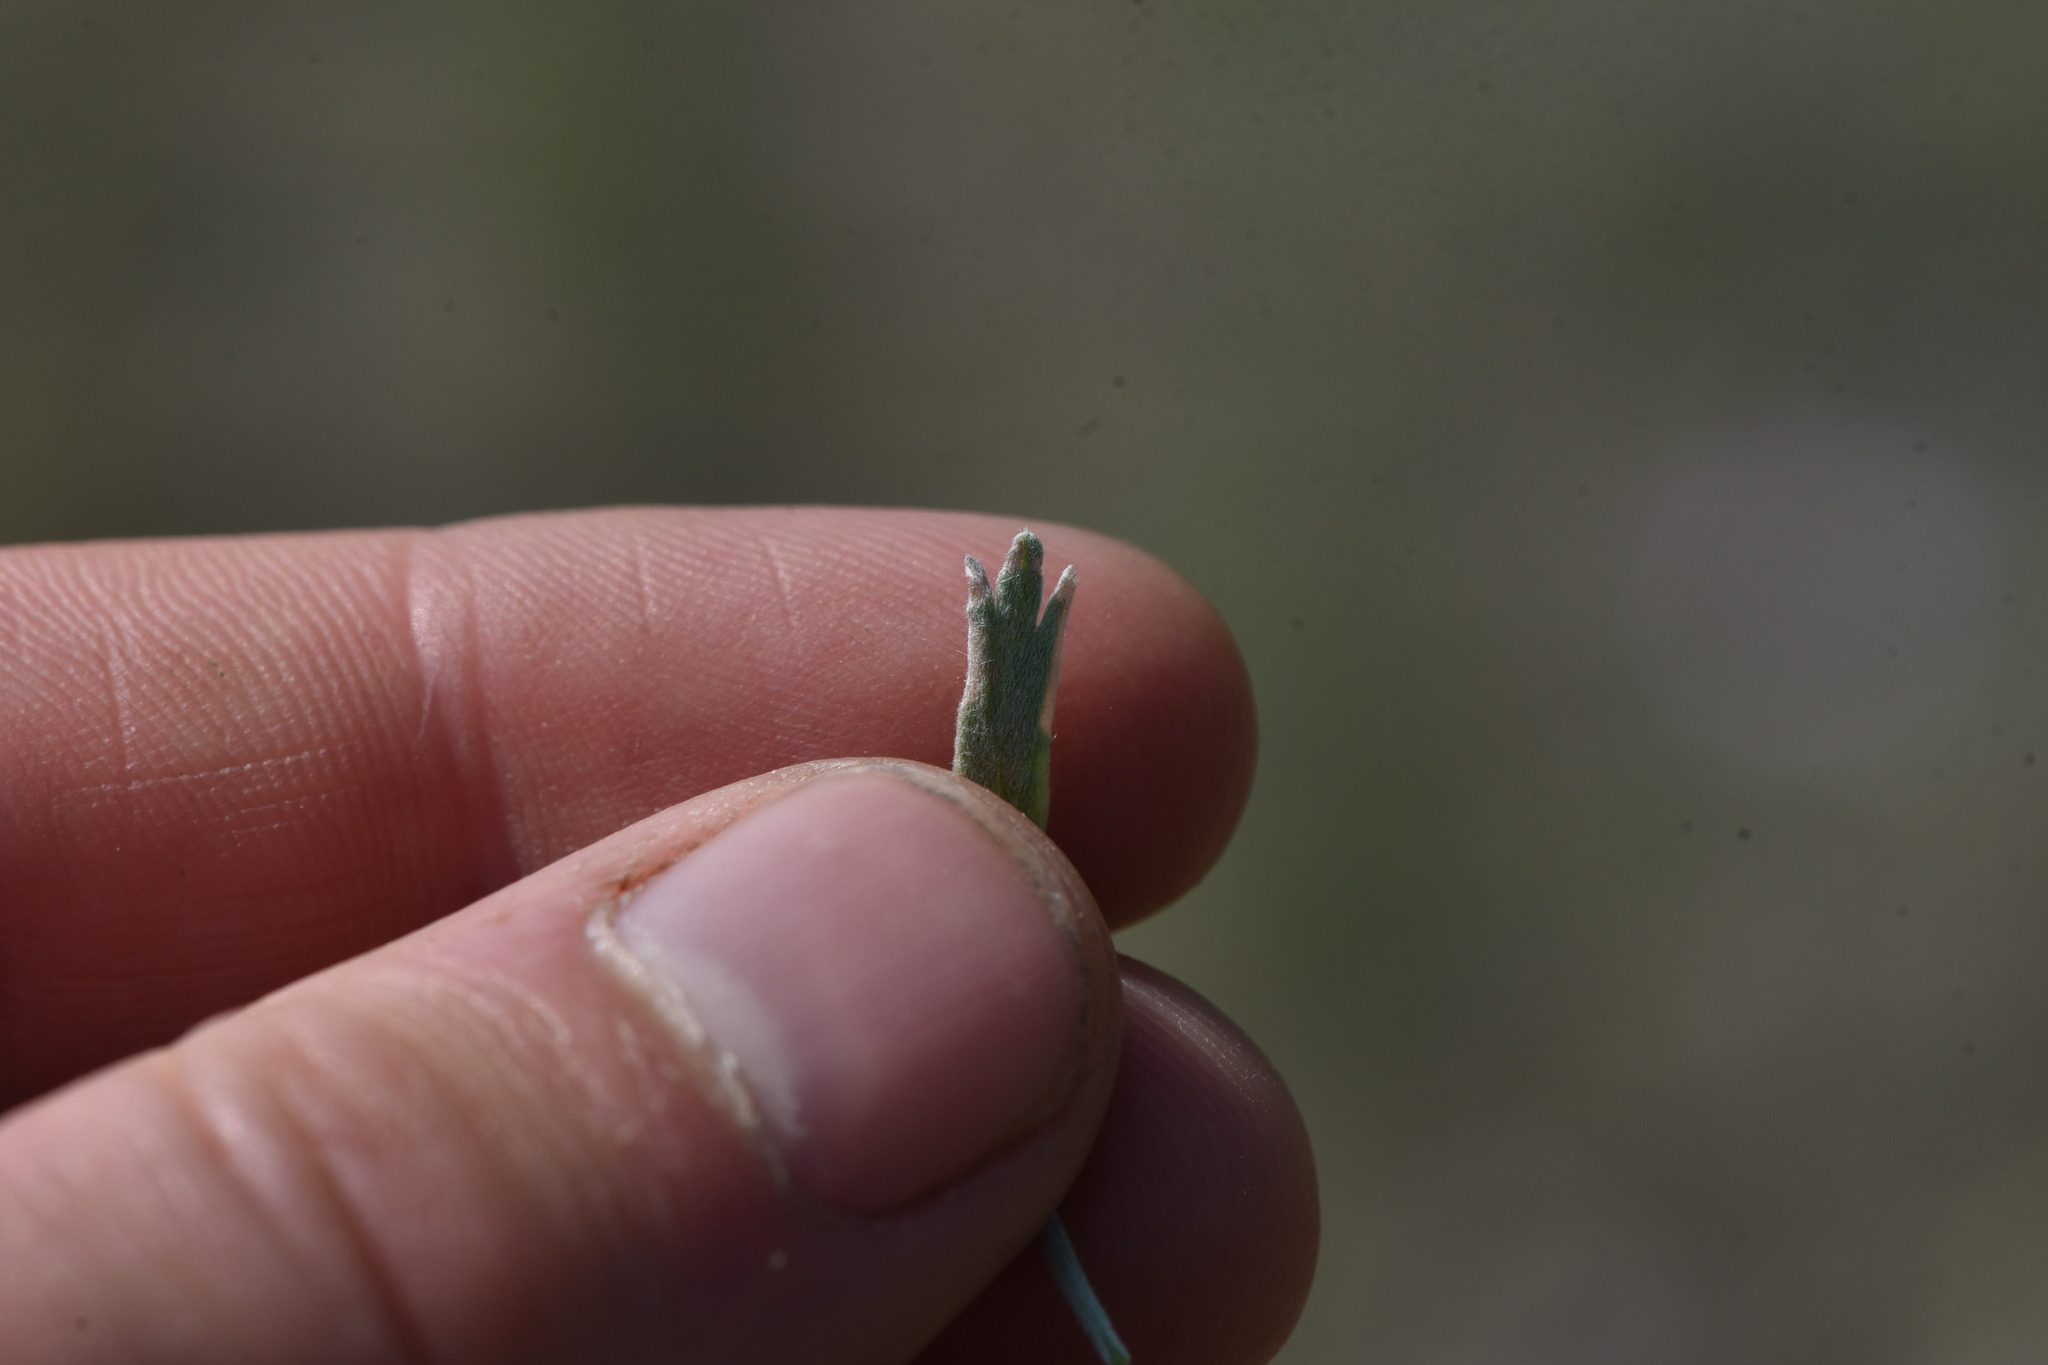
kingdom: Plantae
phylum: Tracheophyta
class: Magnoliopsida
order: Asterales
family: Asteraceae
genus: Artemisia
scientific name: Artemisia tridentata
